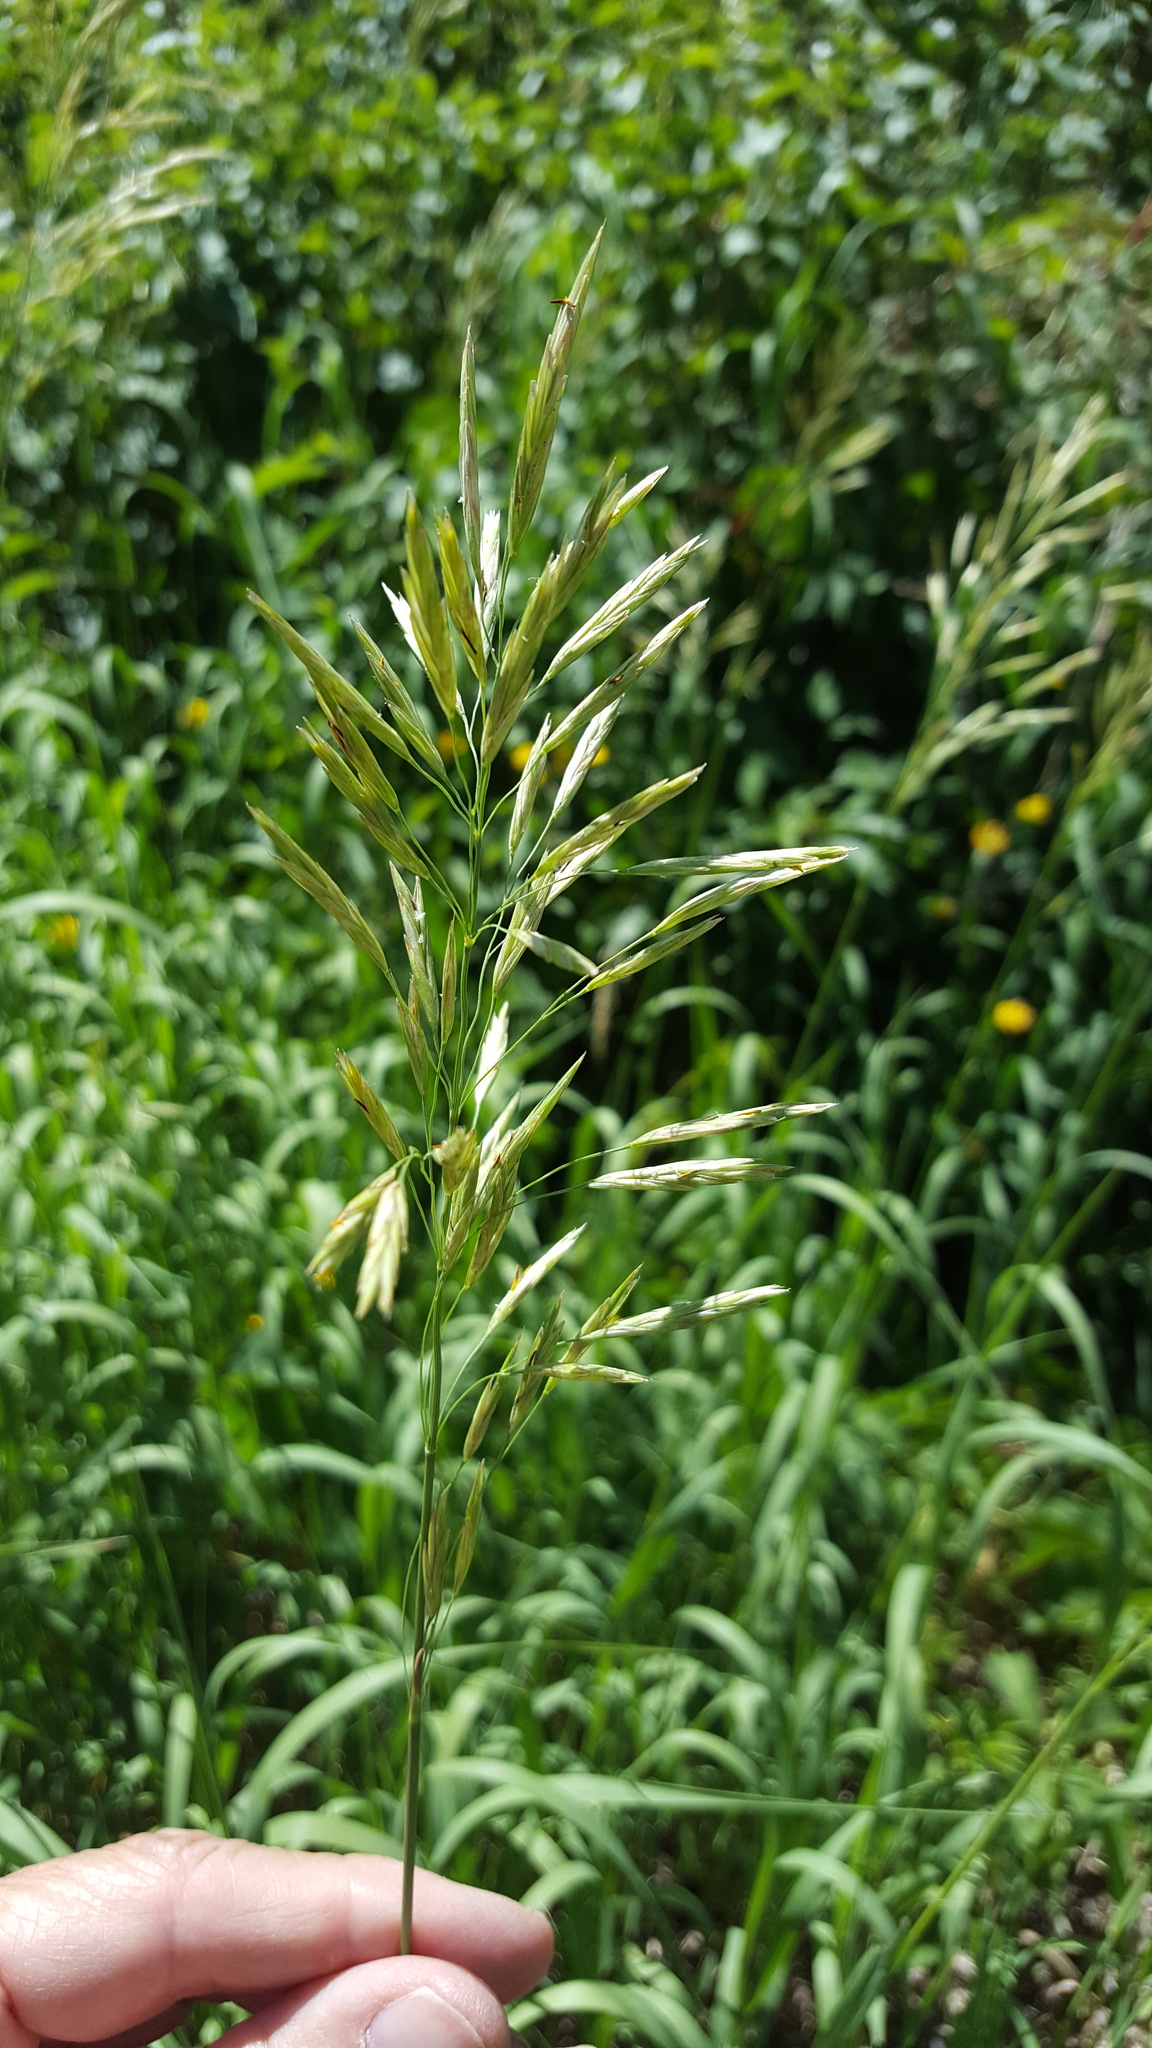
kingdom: Plantae
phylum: Tracheophyta
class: Liliopsida
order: Poales
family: Poaceae
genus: Bromus
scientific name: Bromus inermis
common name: Smooth brome
